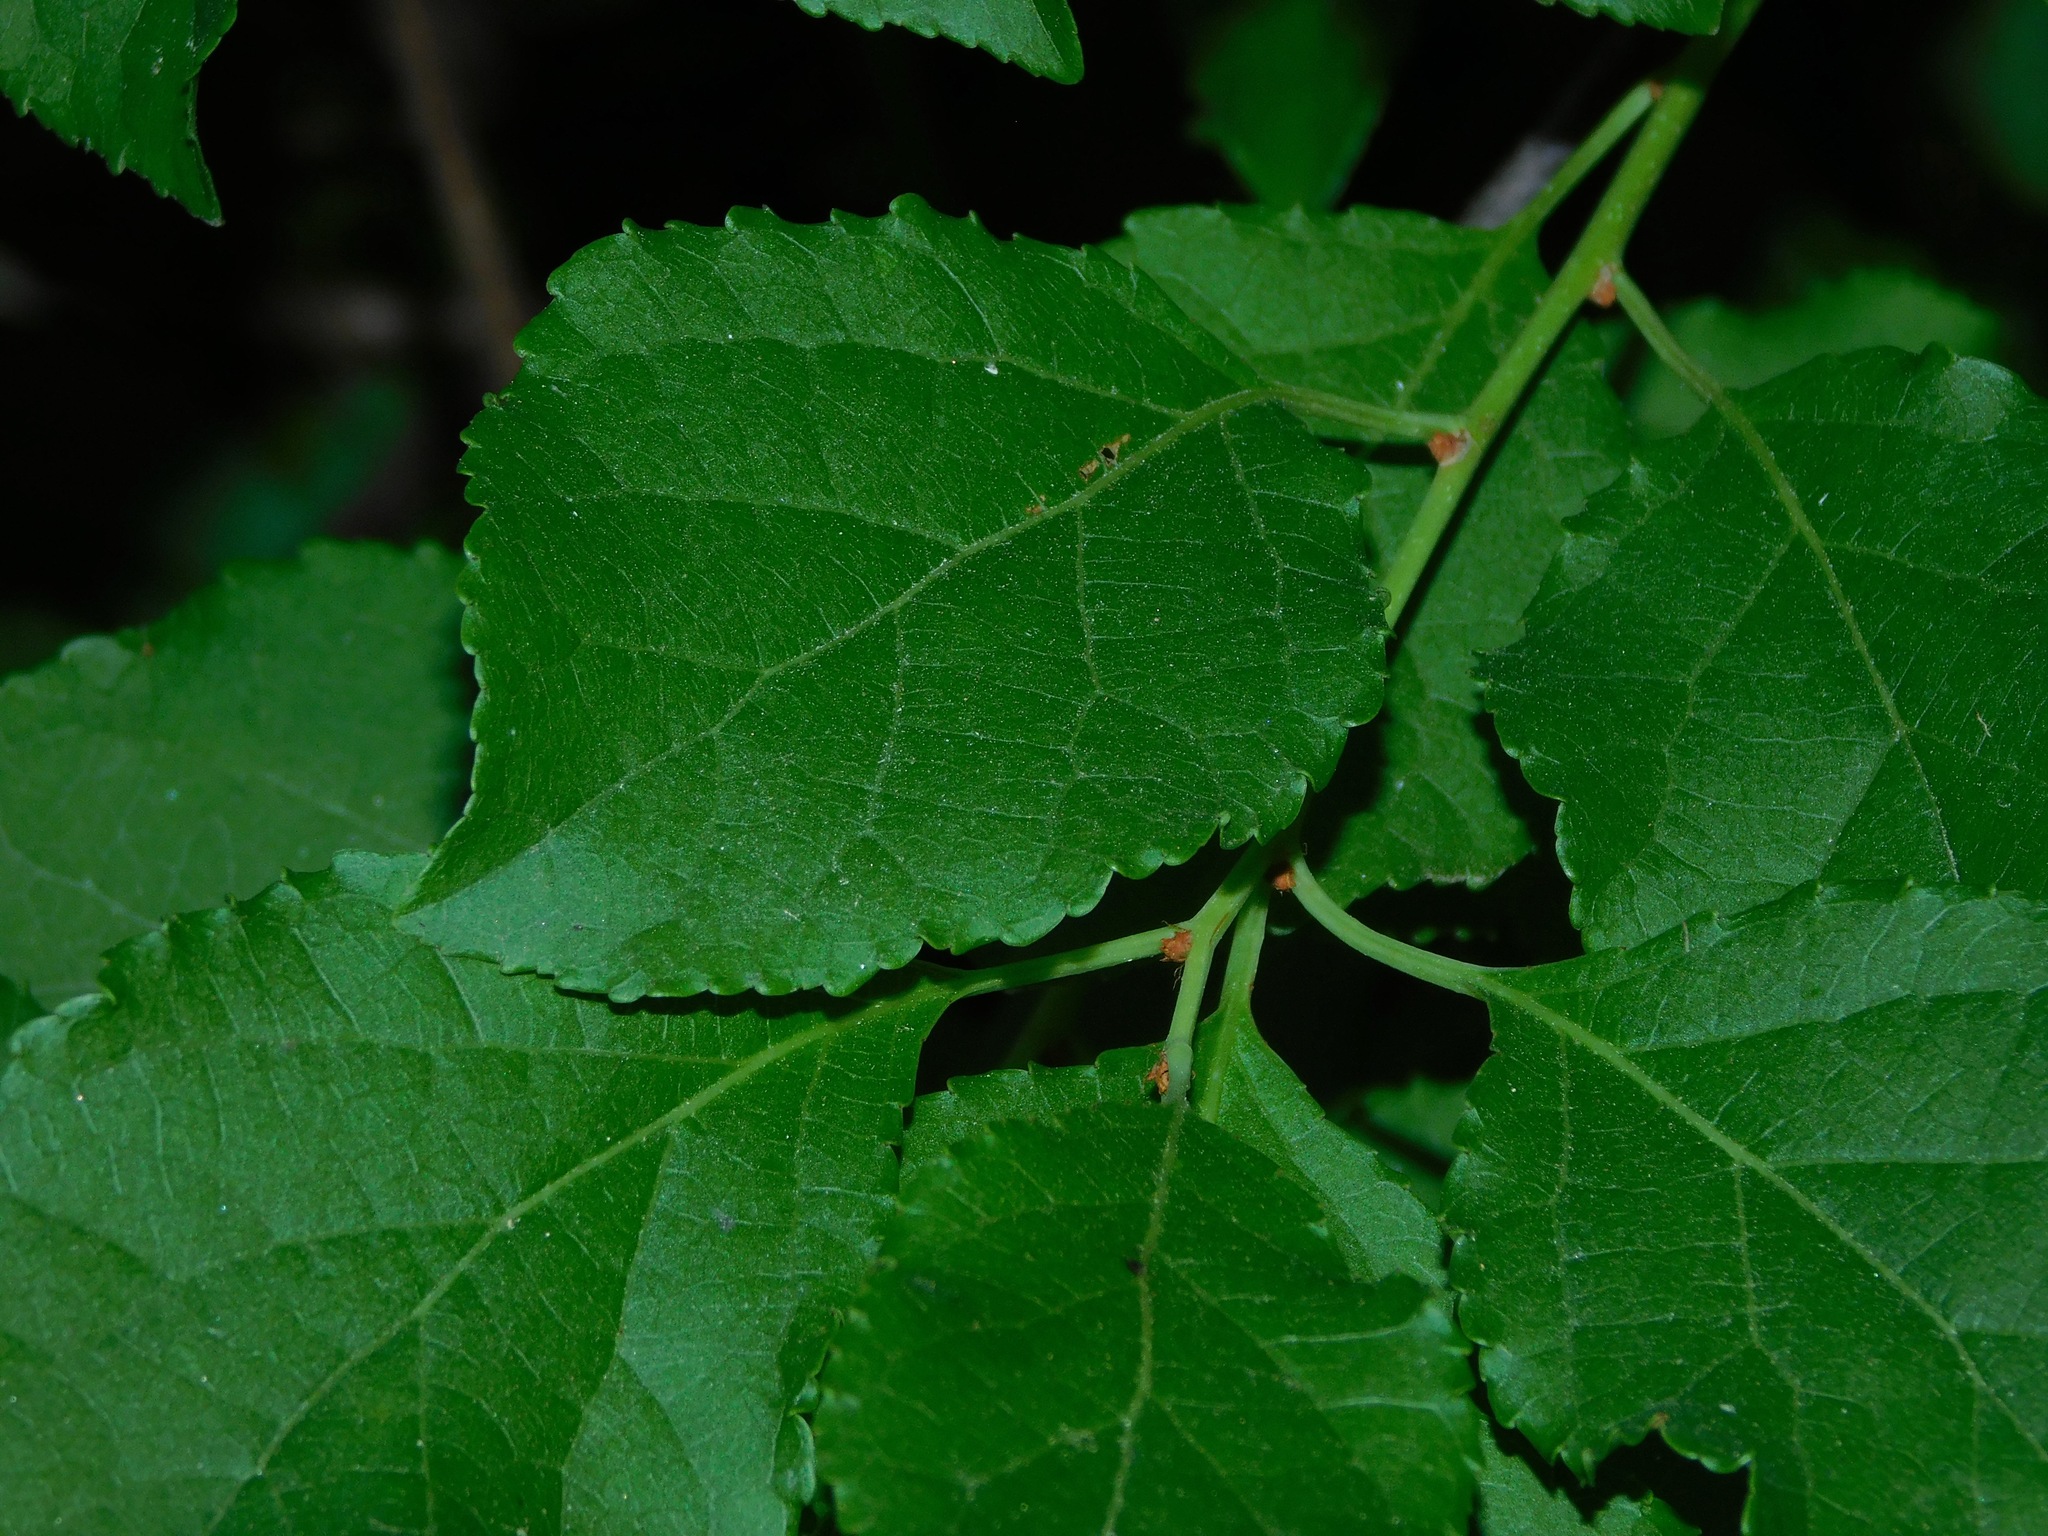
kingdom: Plantae
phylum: Tracheophyta
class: Magnoliopsida
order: Celastrales
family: Celastraceae
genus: Celastrus
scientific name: Celastrus orbiculatus
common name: Oriental bittersweet
